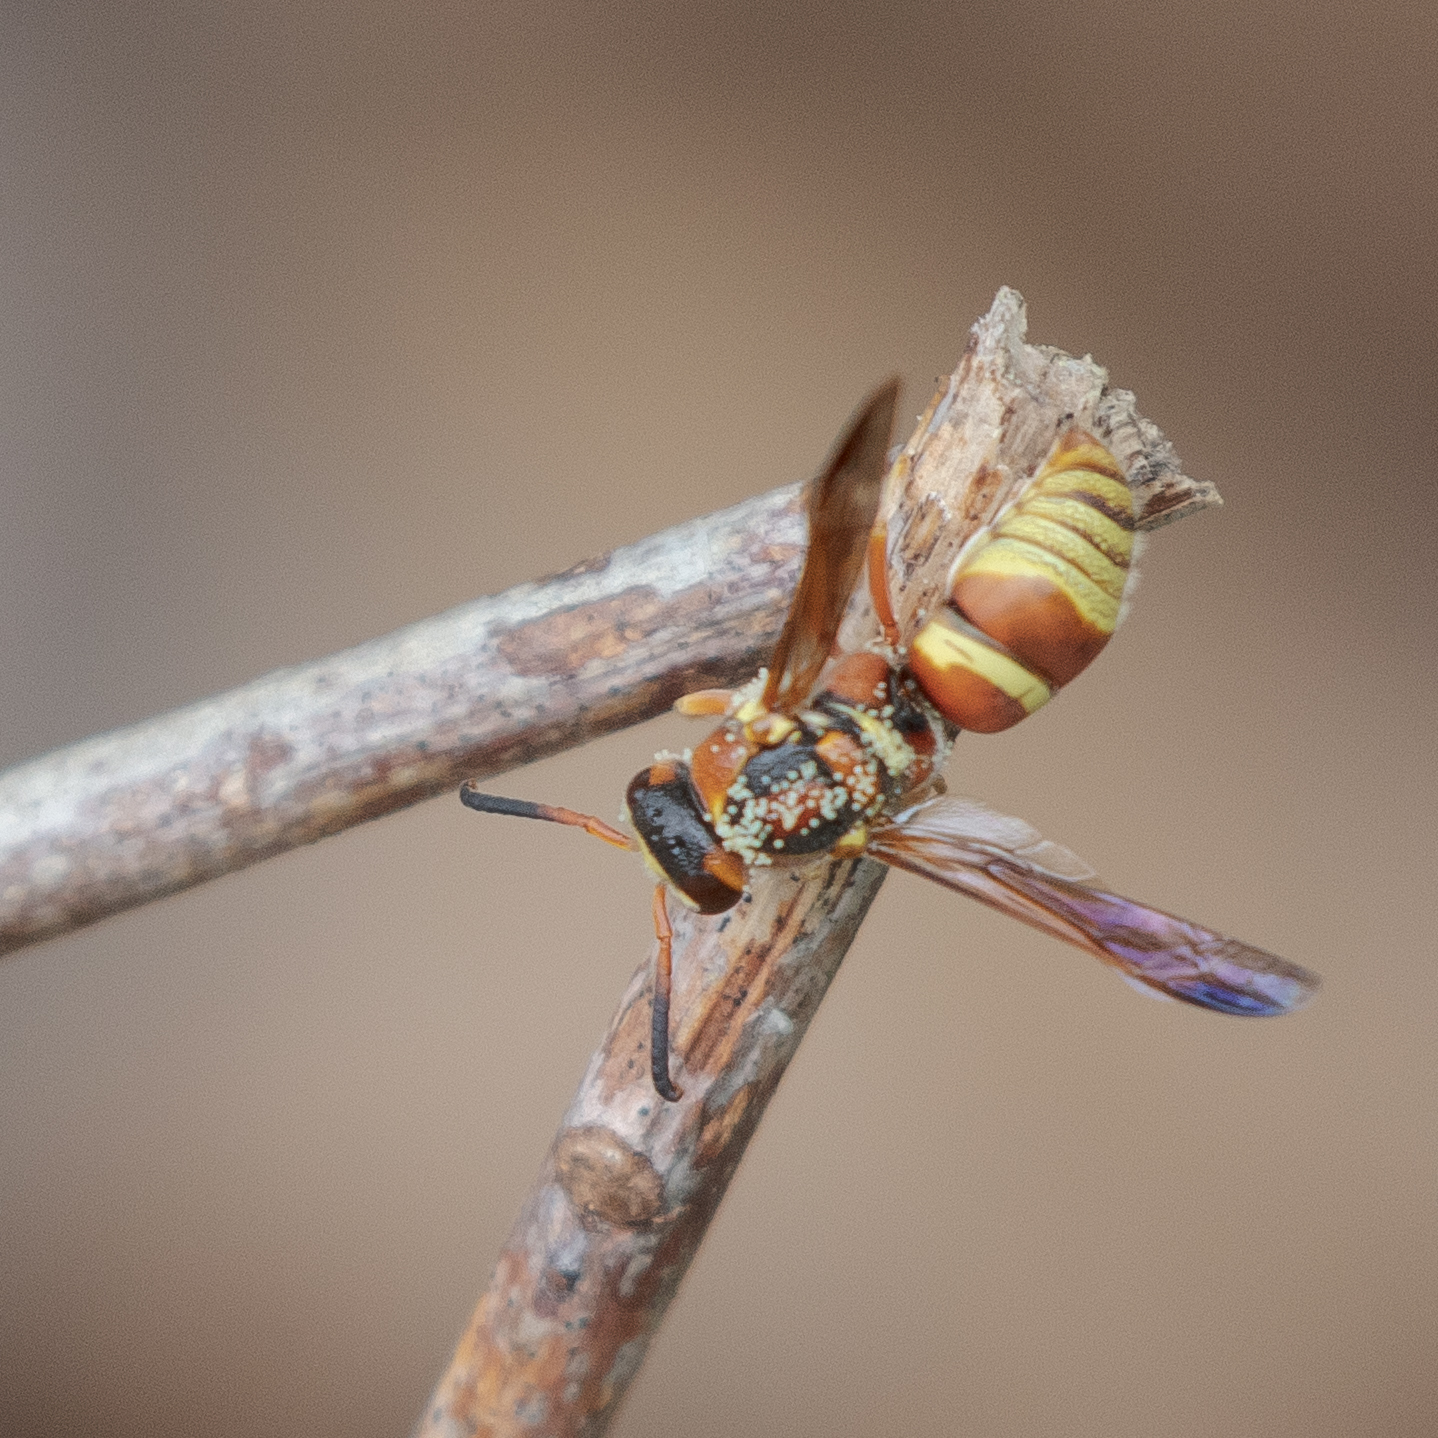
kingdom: Animalia
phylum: Arthropoda
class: Insecta
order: Hymenoptera
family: Eumenidae
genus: Euodynerus
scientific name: Euodynerus pratensis
